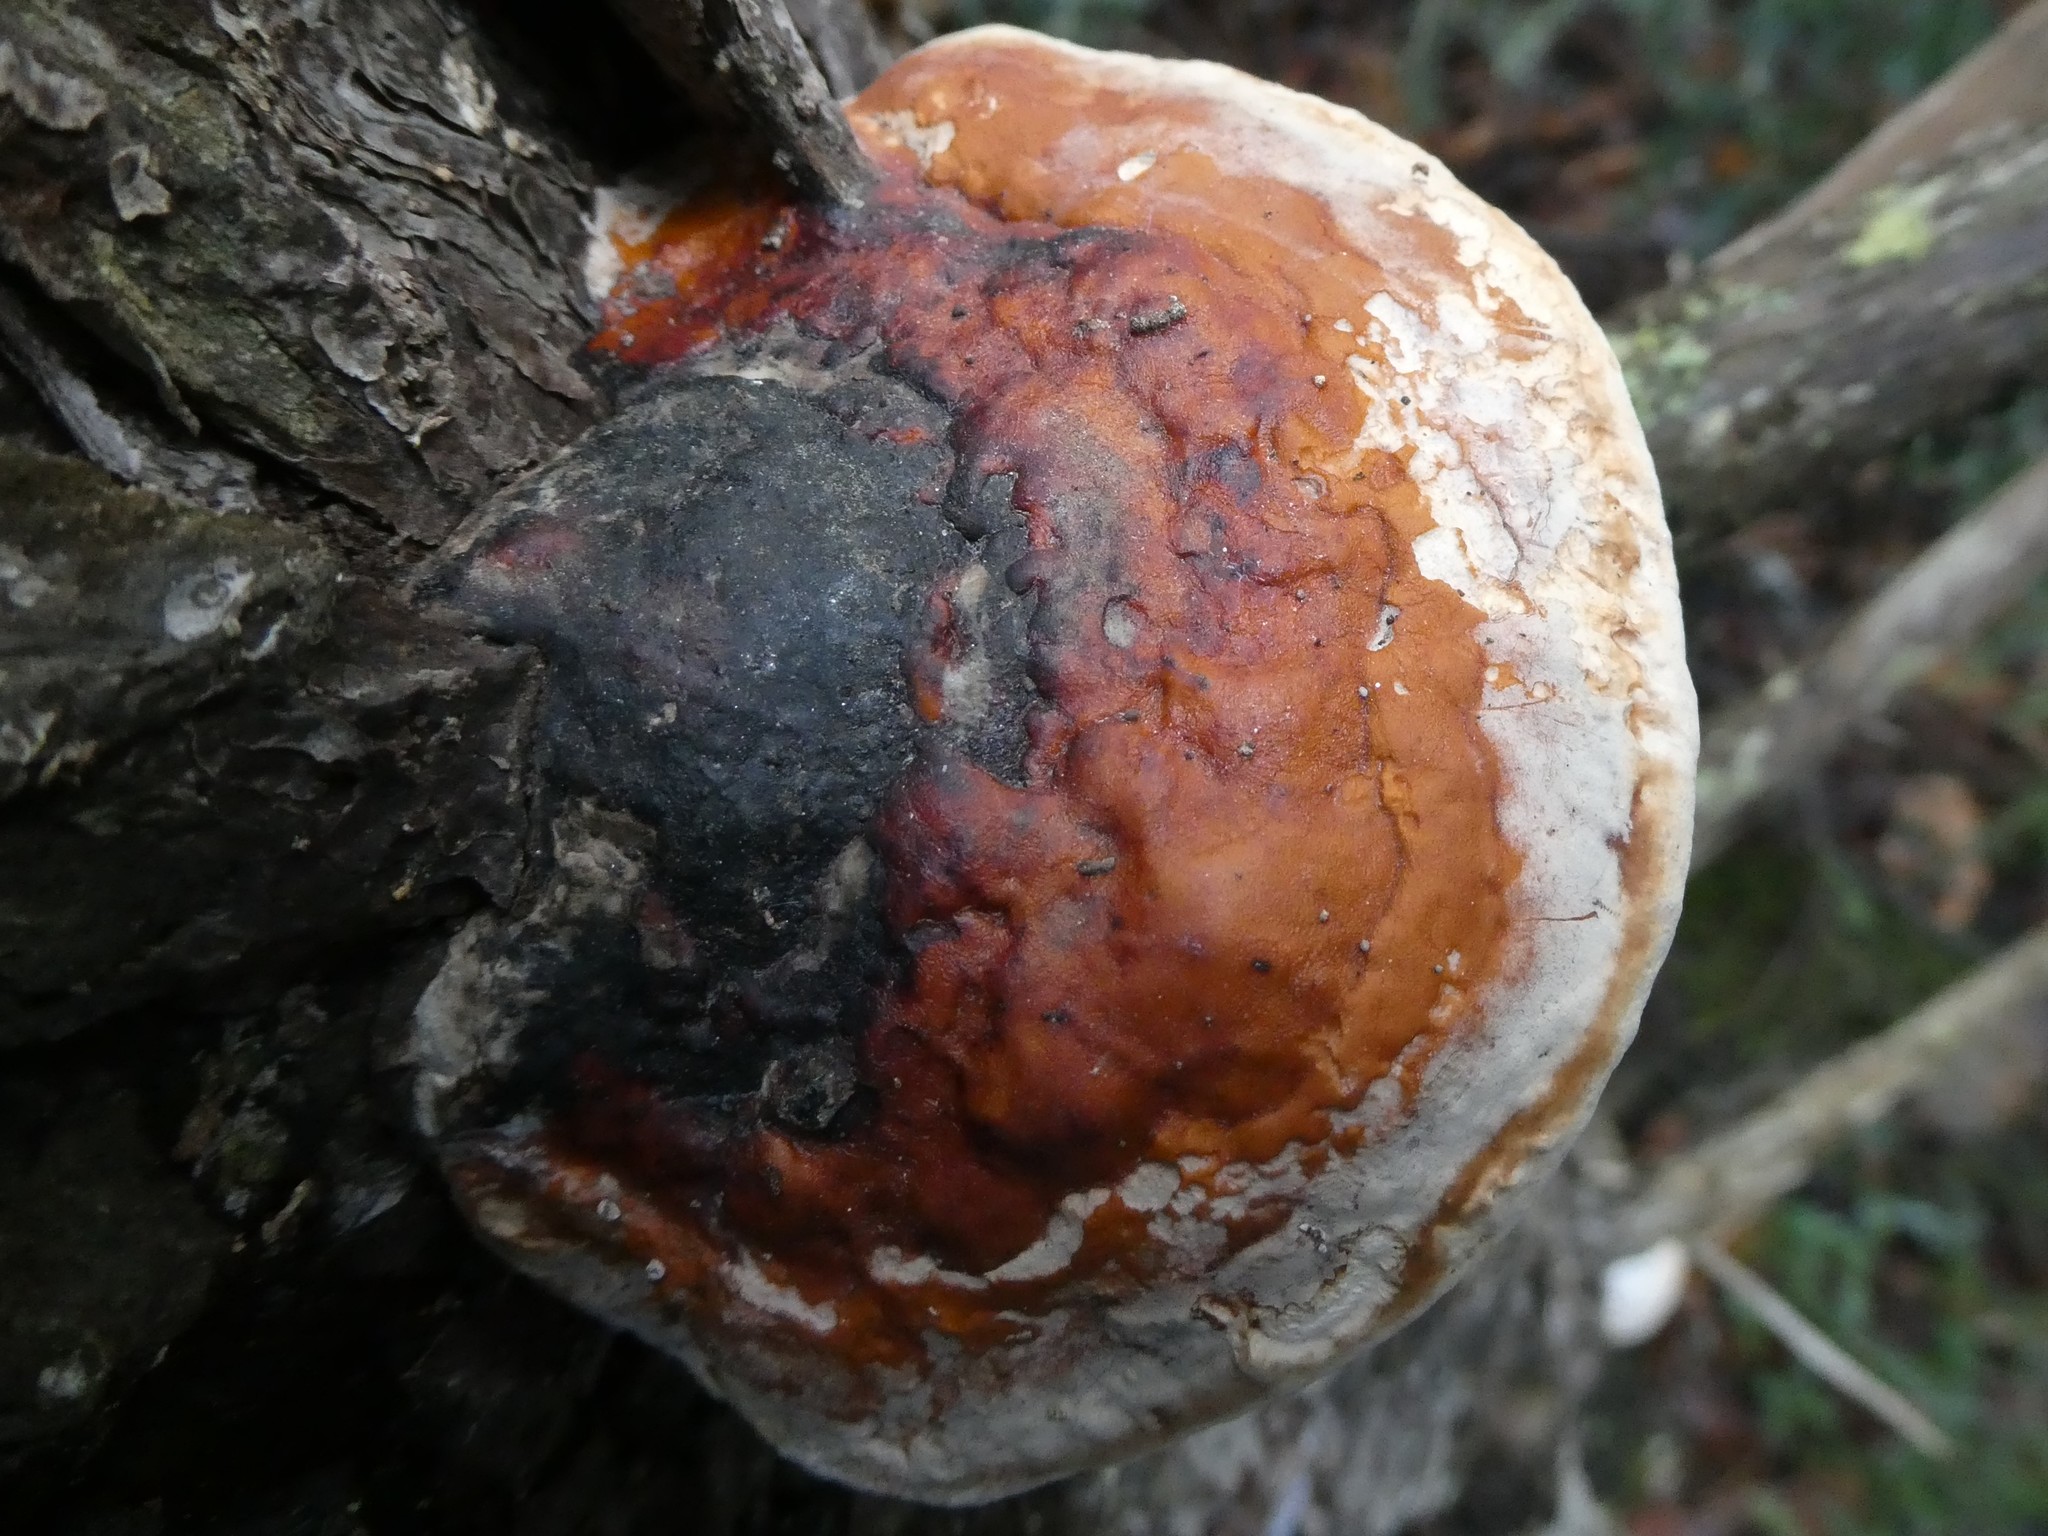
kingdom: Fungi
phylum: Basidiomycota
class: Agaricomycetes
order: Polyporales
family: Fomitopsidaceae
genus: Fomitopsis
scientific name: Fomitopsis mounceae
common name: Northern red belt
